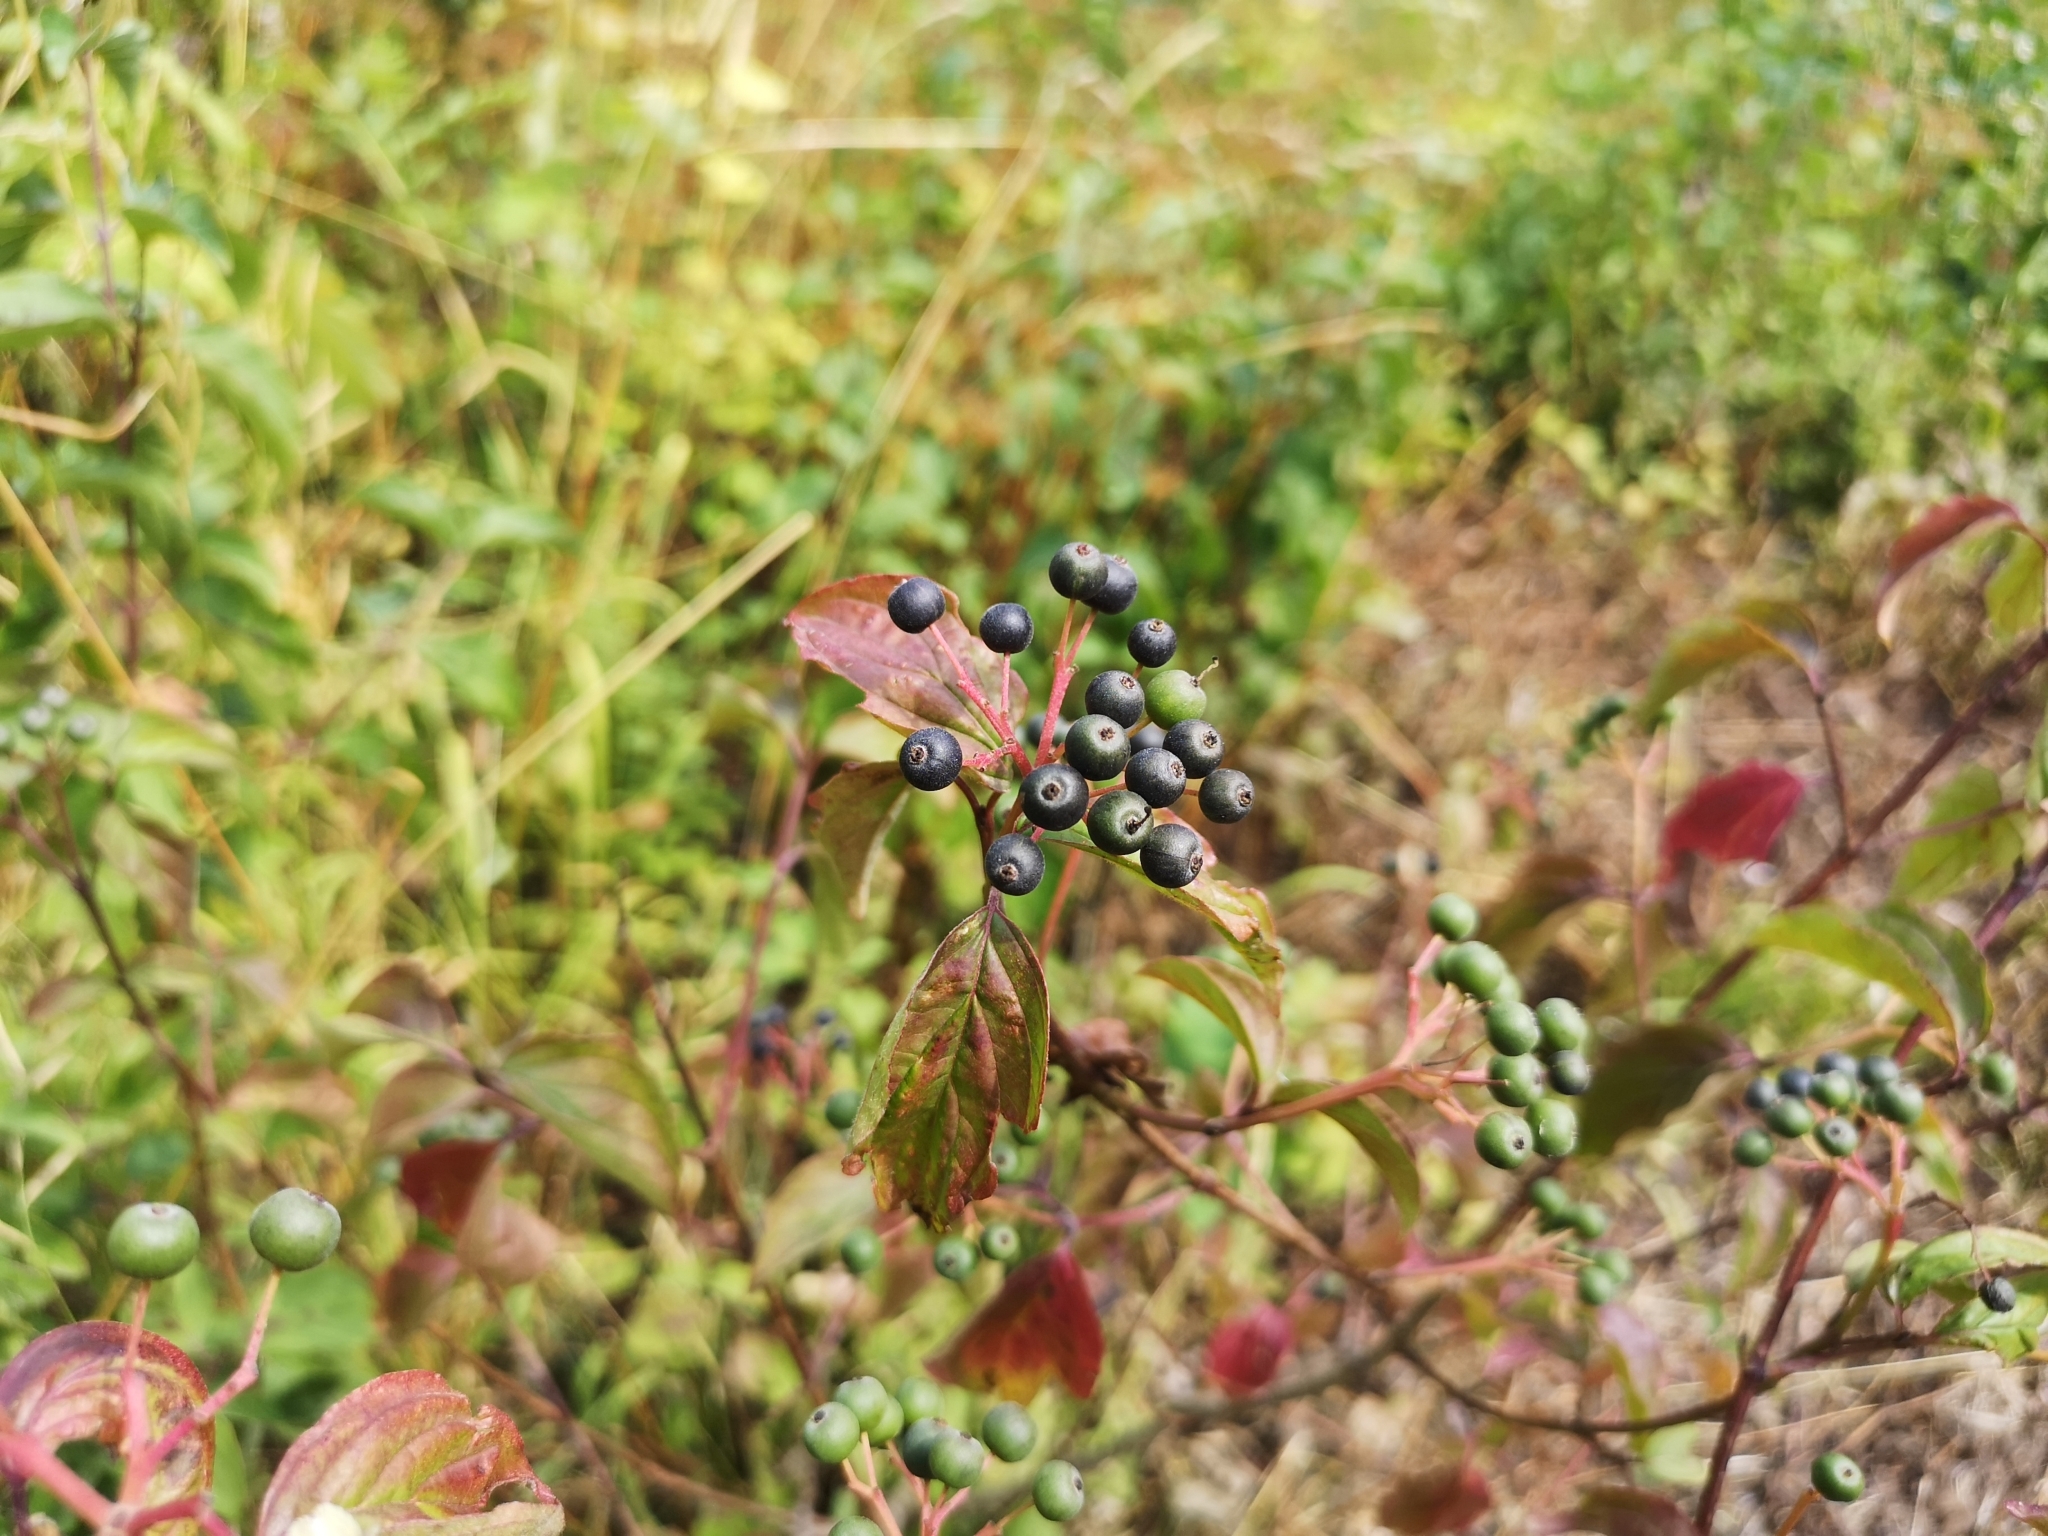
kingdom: Plantae
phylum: Tracheophyta
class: Magnoliopsida
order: Cornales
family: Cornaceae
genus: Cornus
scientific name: Cornus sanguinea
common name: Dogwood
